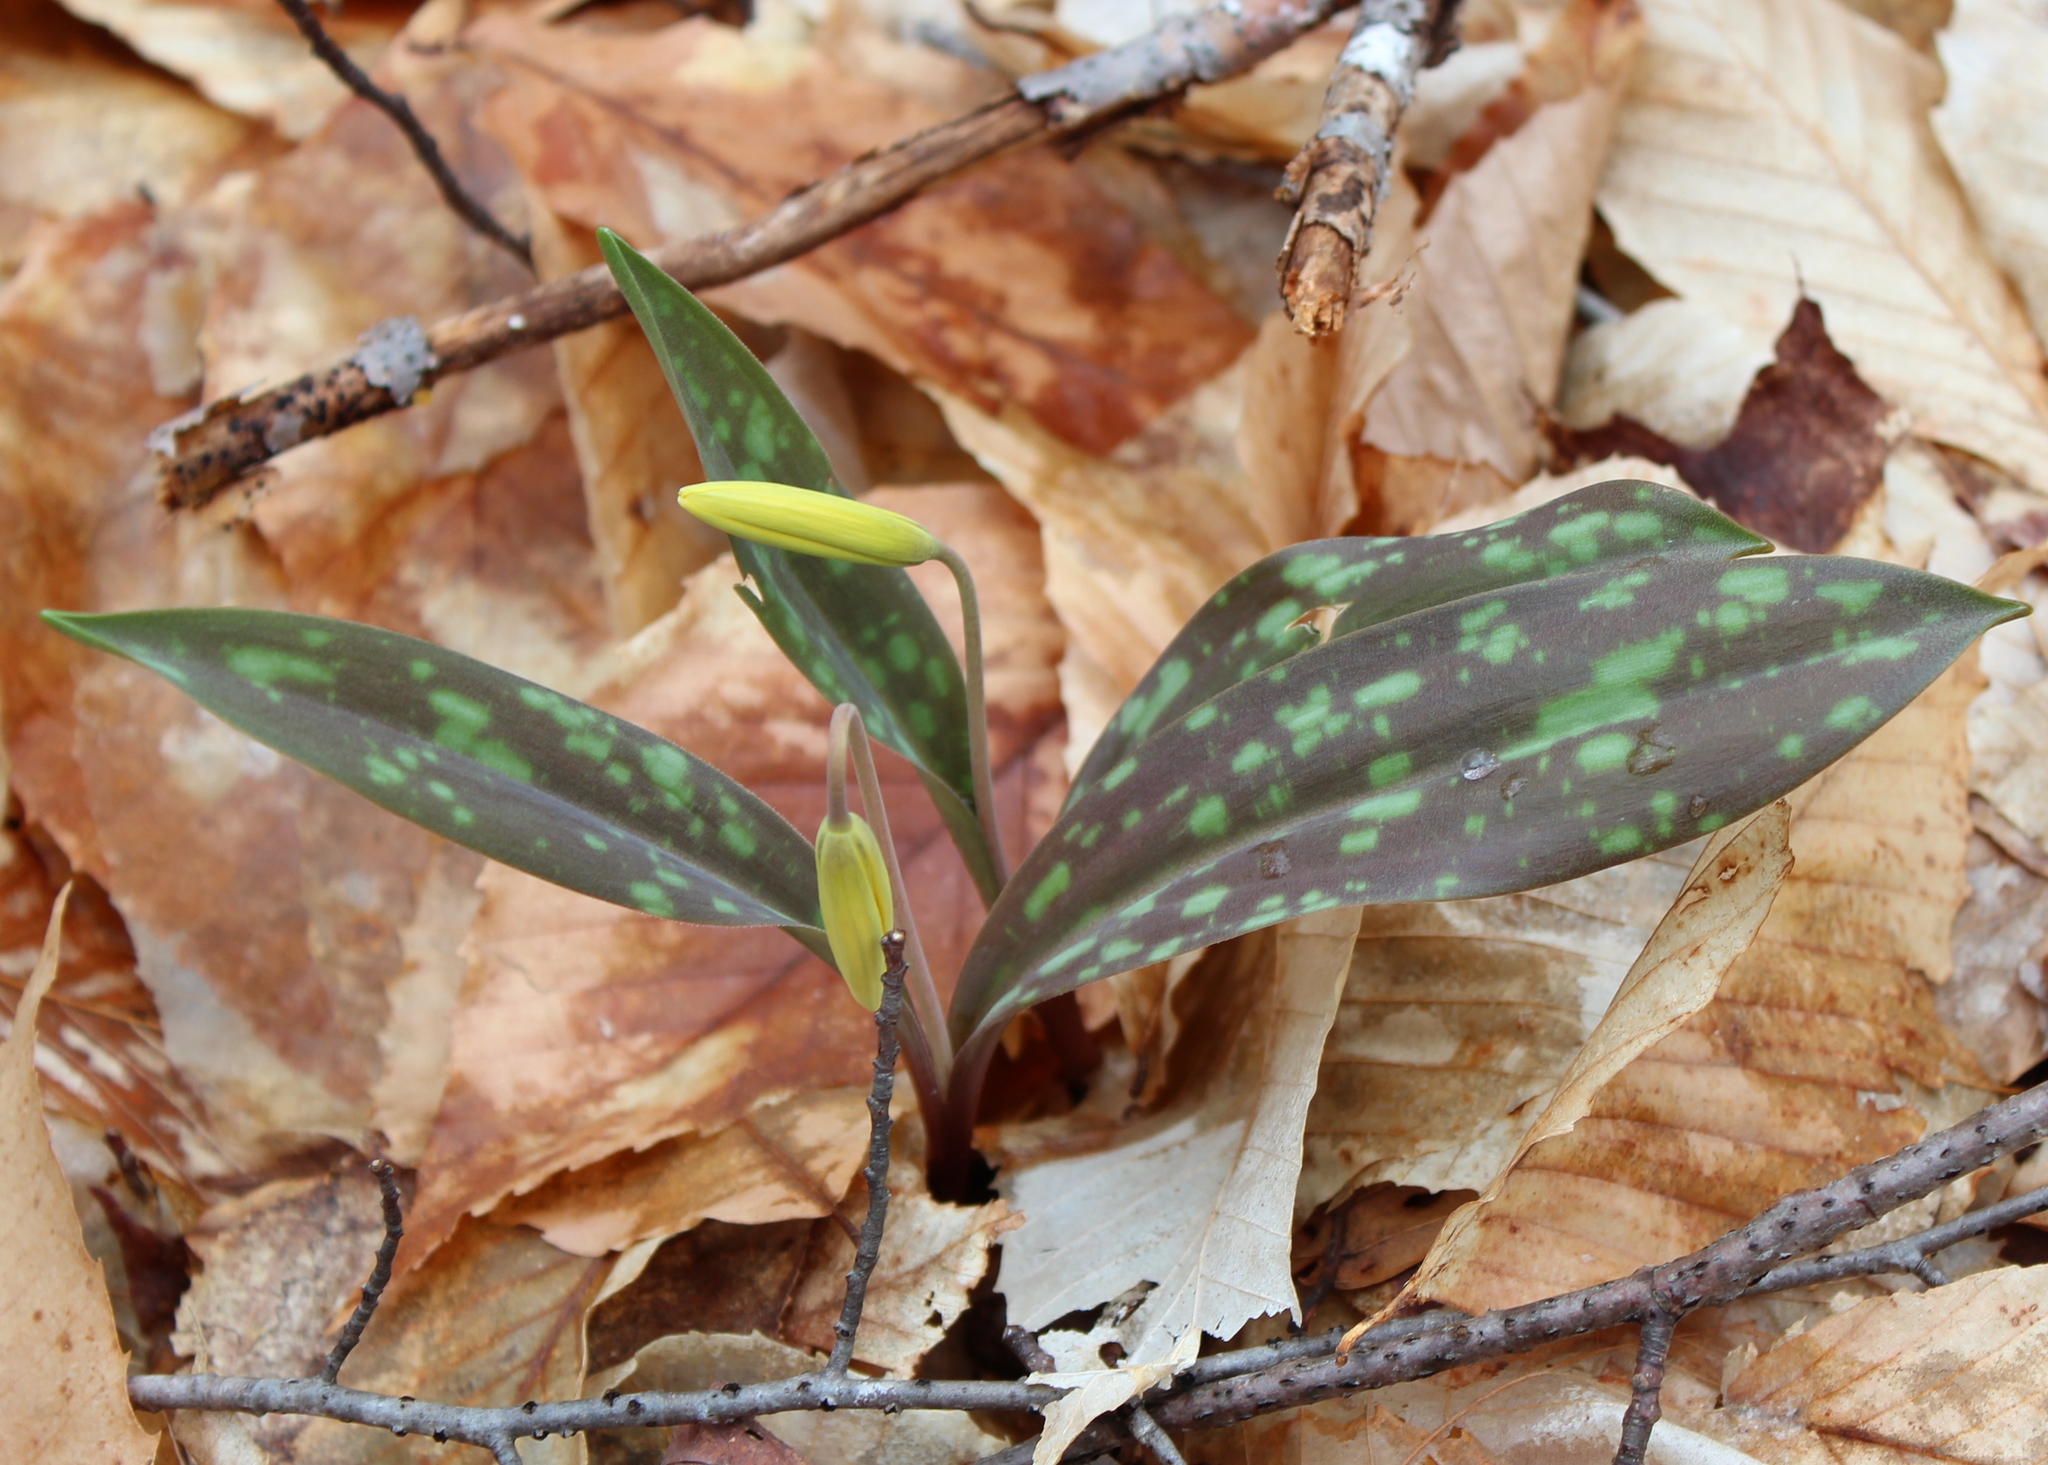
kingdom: Plantae
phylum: Tracheophyta
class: Liliopsida
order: Liliales
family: Liliaceae
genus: Erythronium
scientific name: Erythronium americanum
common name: Yellow adder's-tongue
